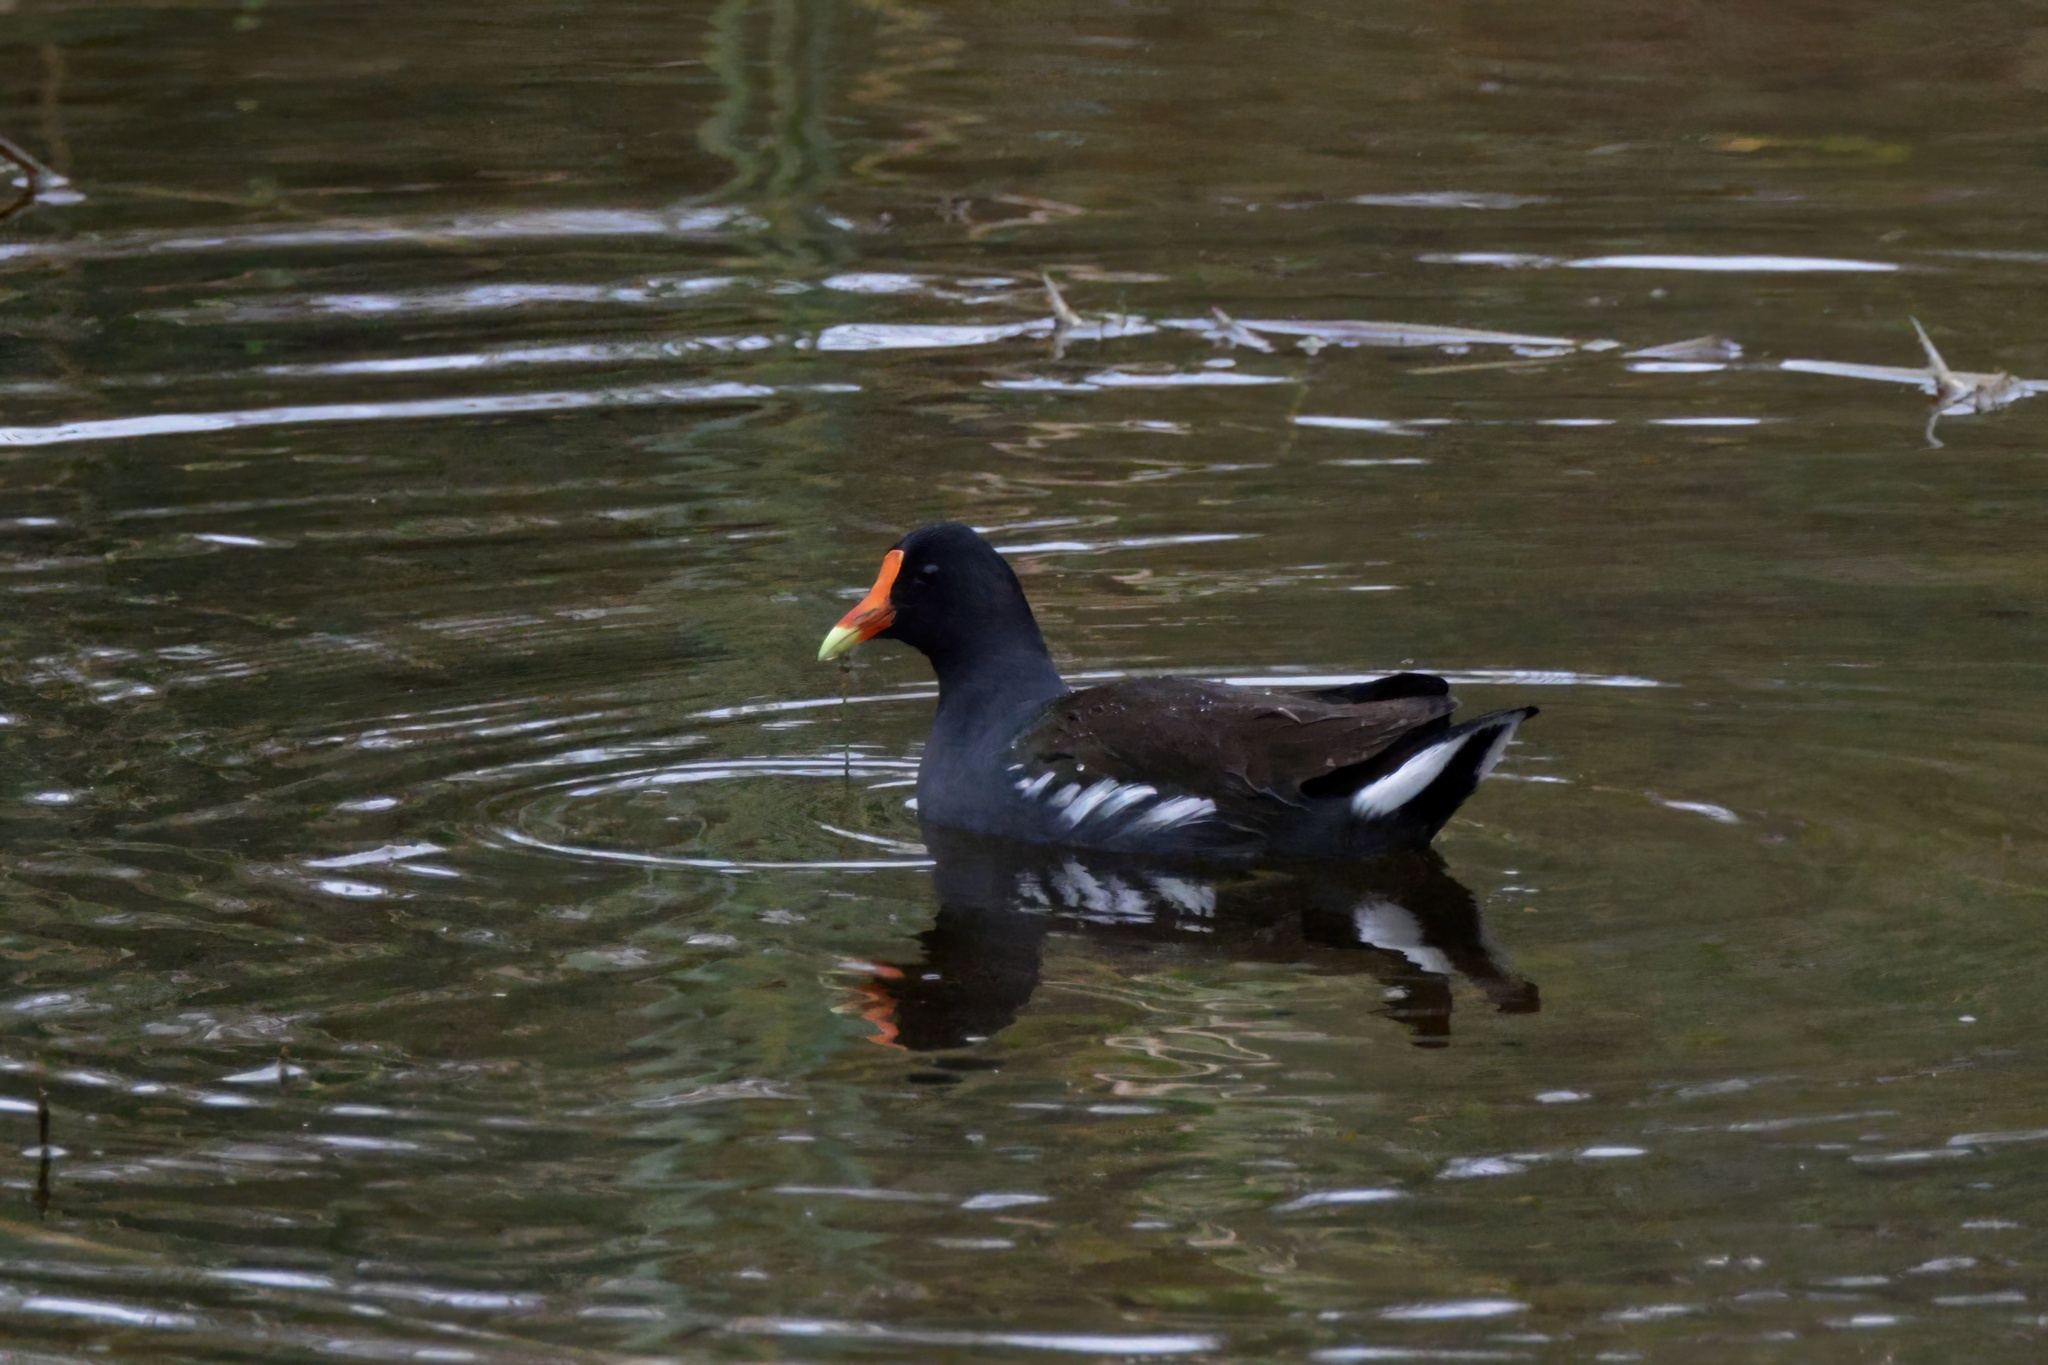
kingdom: Animalia
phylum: Chordata
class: Aves
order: Gruiformes
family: Rallidae
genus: Gallinula
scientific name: Gallinula chloropus
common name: Common moorhen
